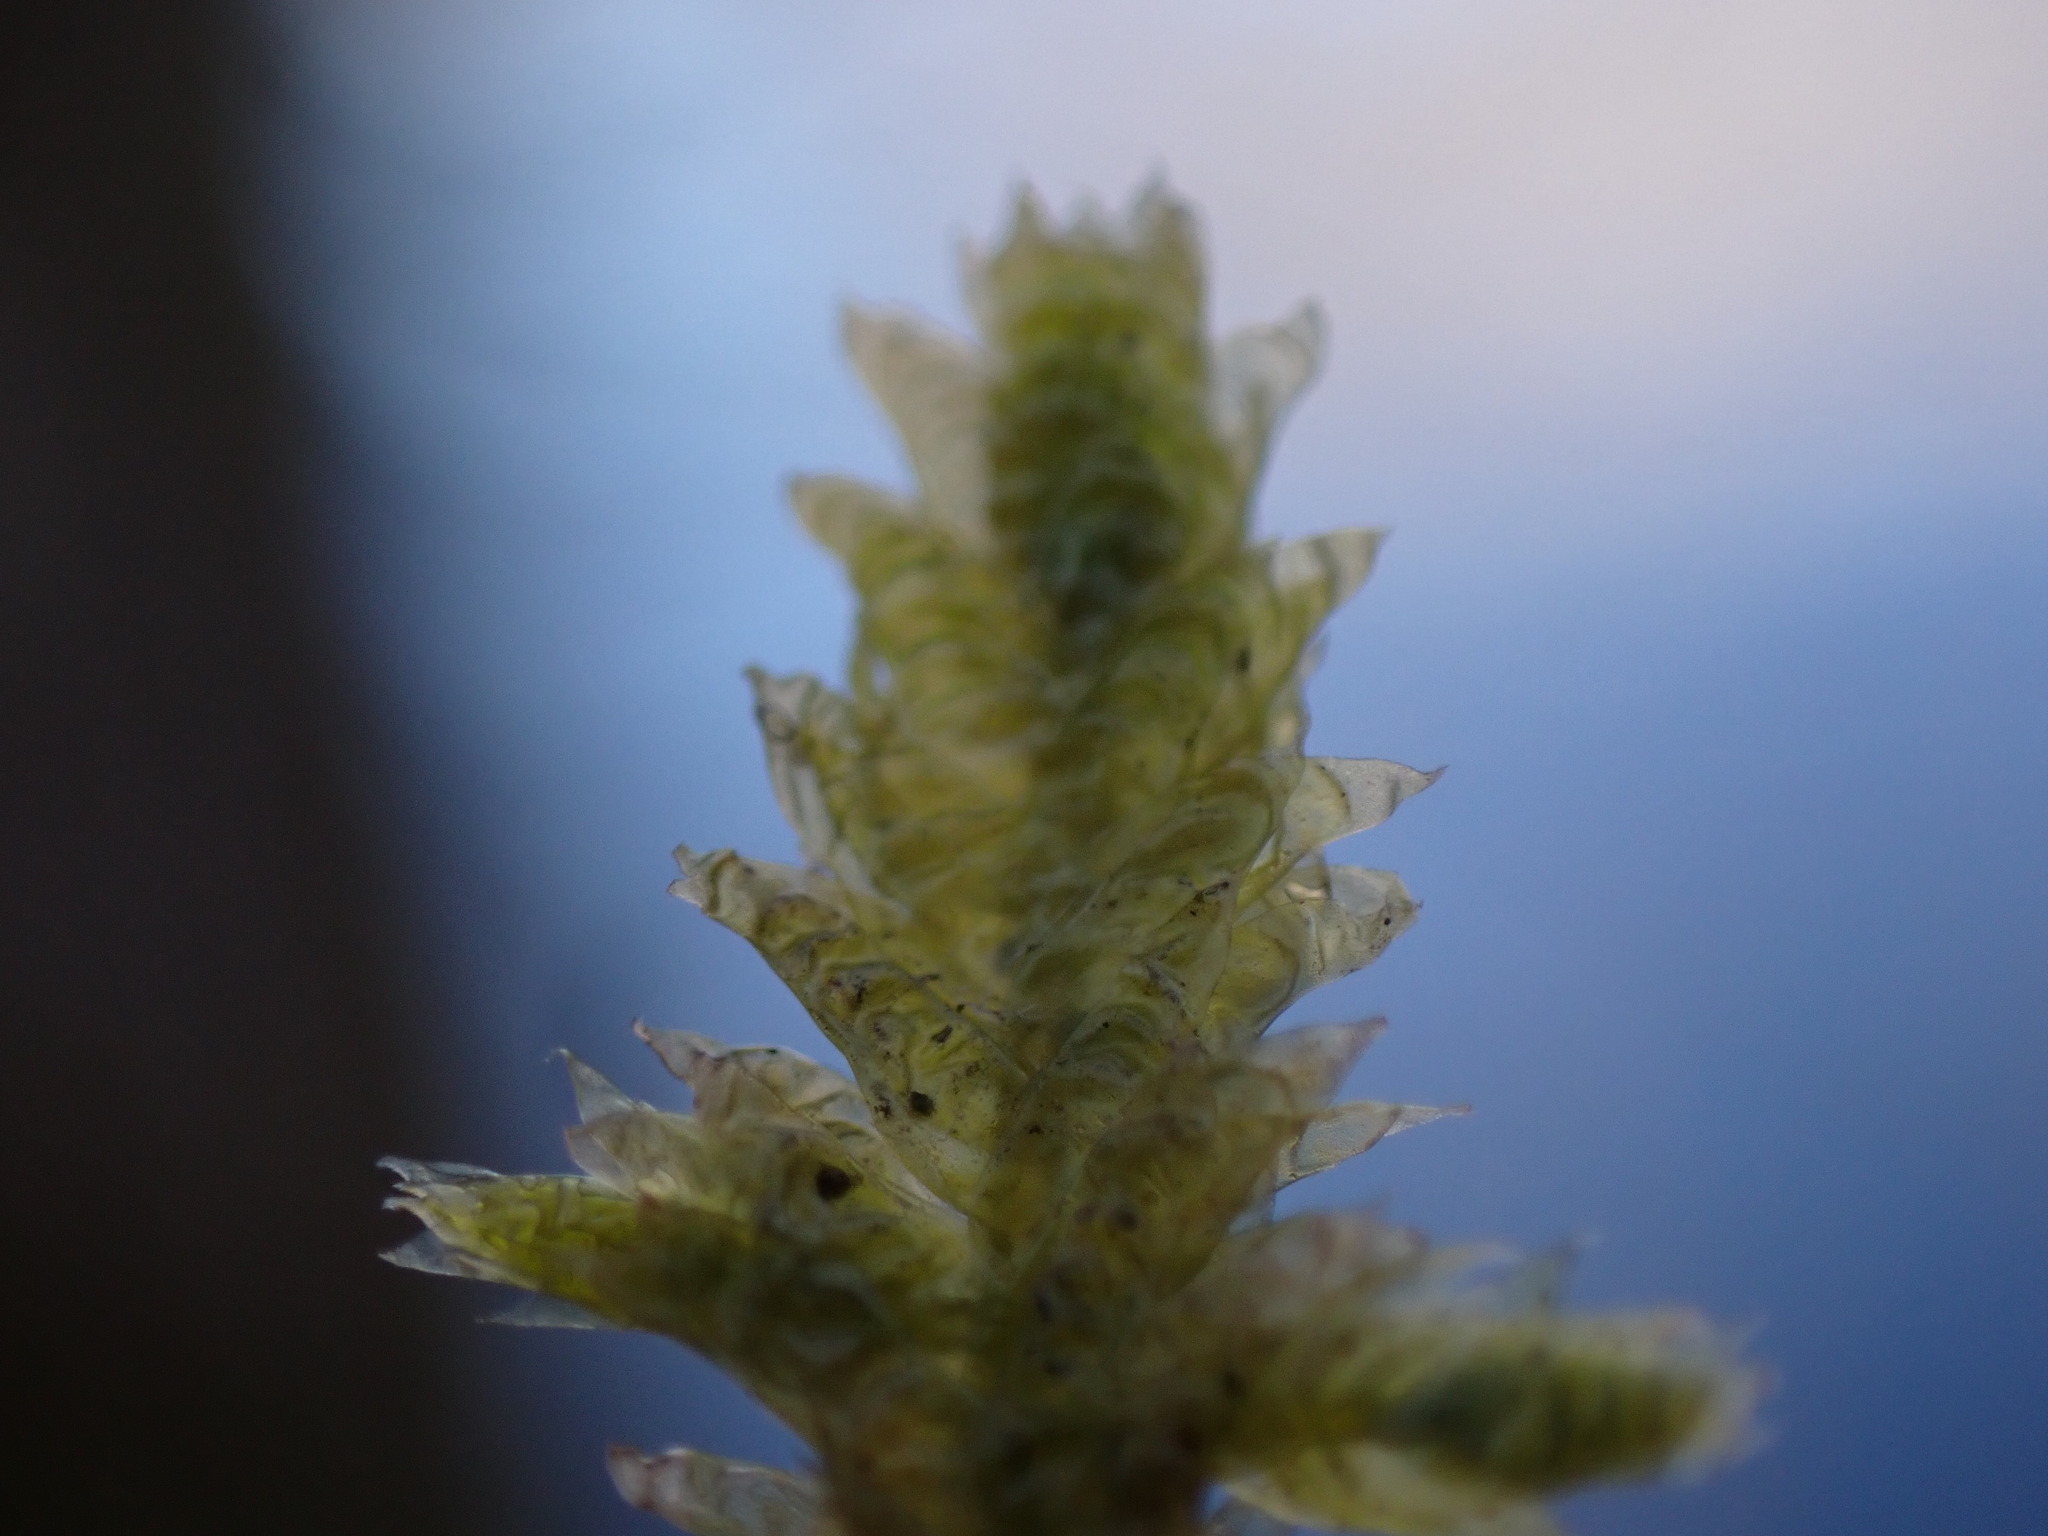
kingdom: Plantae
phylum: Bryophyta
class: Bryopsida
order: Hypnales
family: Neckeraceae
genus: Neckera
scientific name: Neckera douglasii
